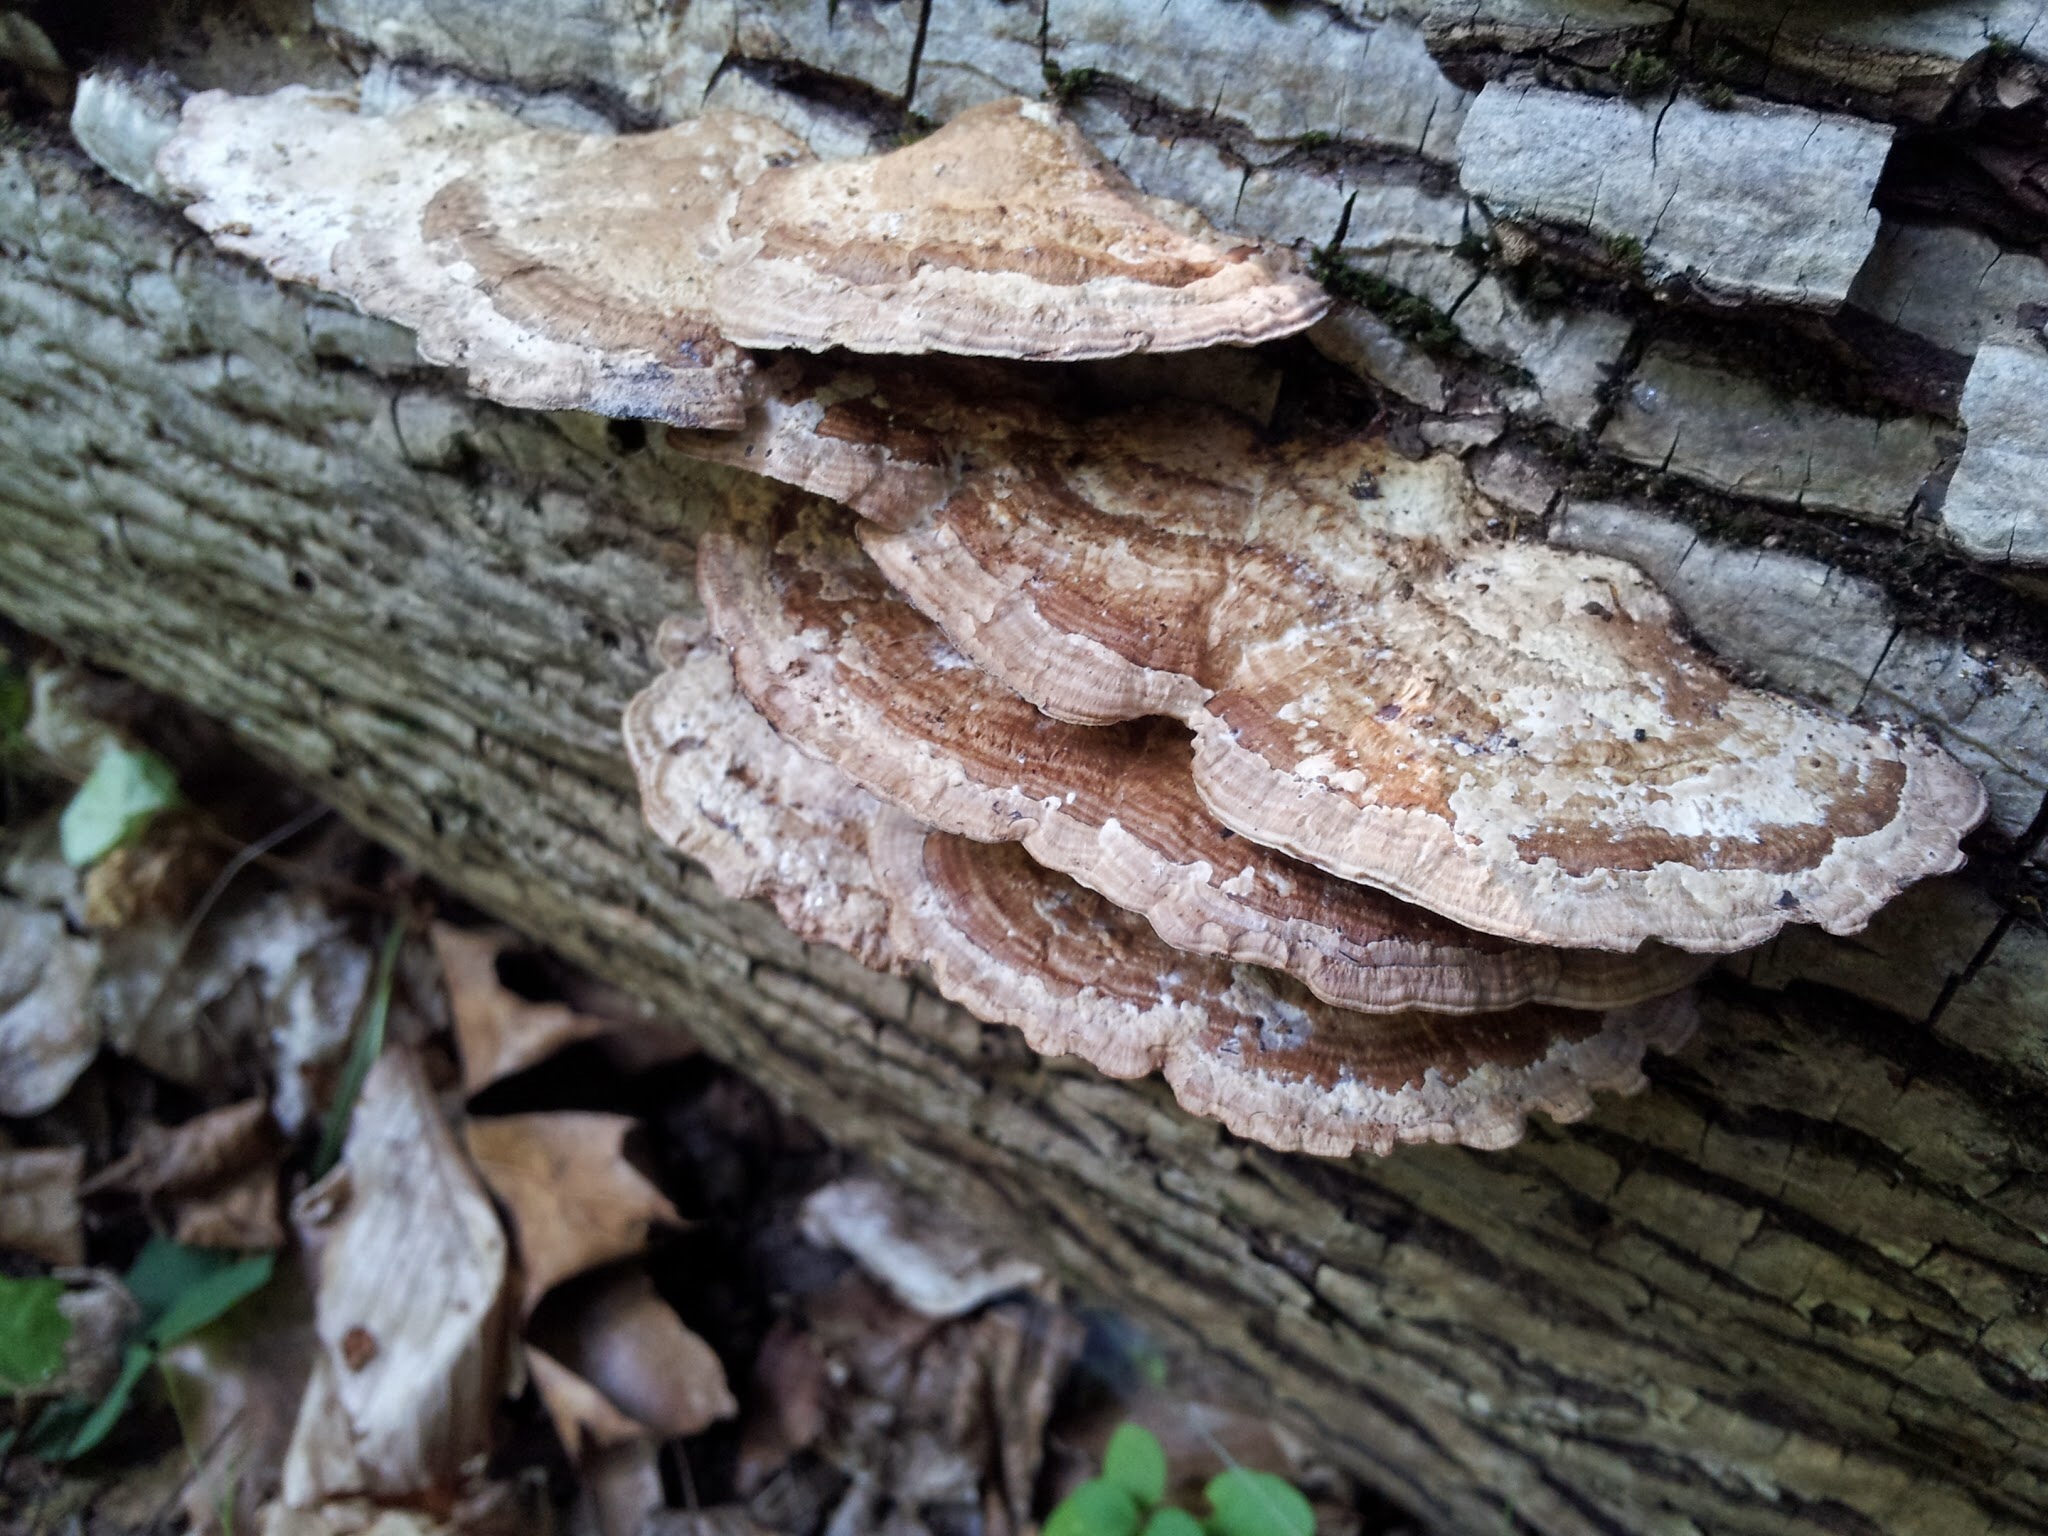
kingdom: Fungi
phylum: Basidiomycota
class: Agaricomycetes
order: Polyporales
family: Polyporaceae
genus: Daedaleopsis
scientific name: Daedaleopsis confragosa
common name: Blushing bracket
